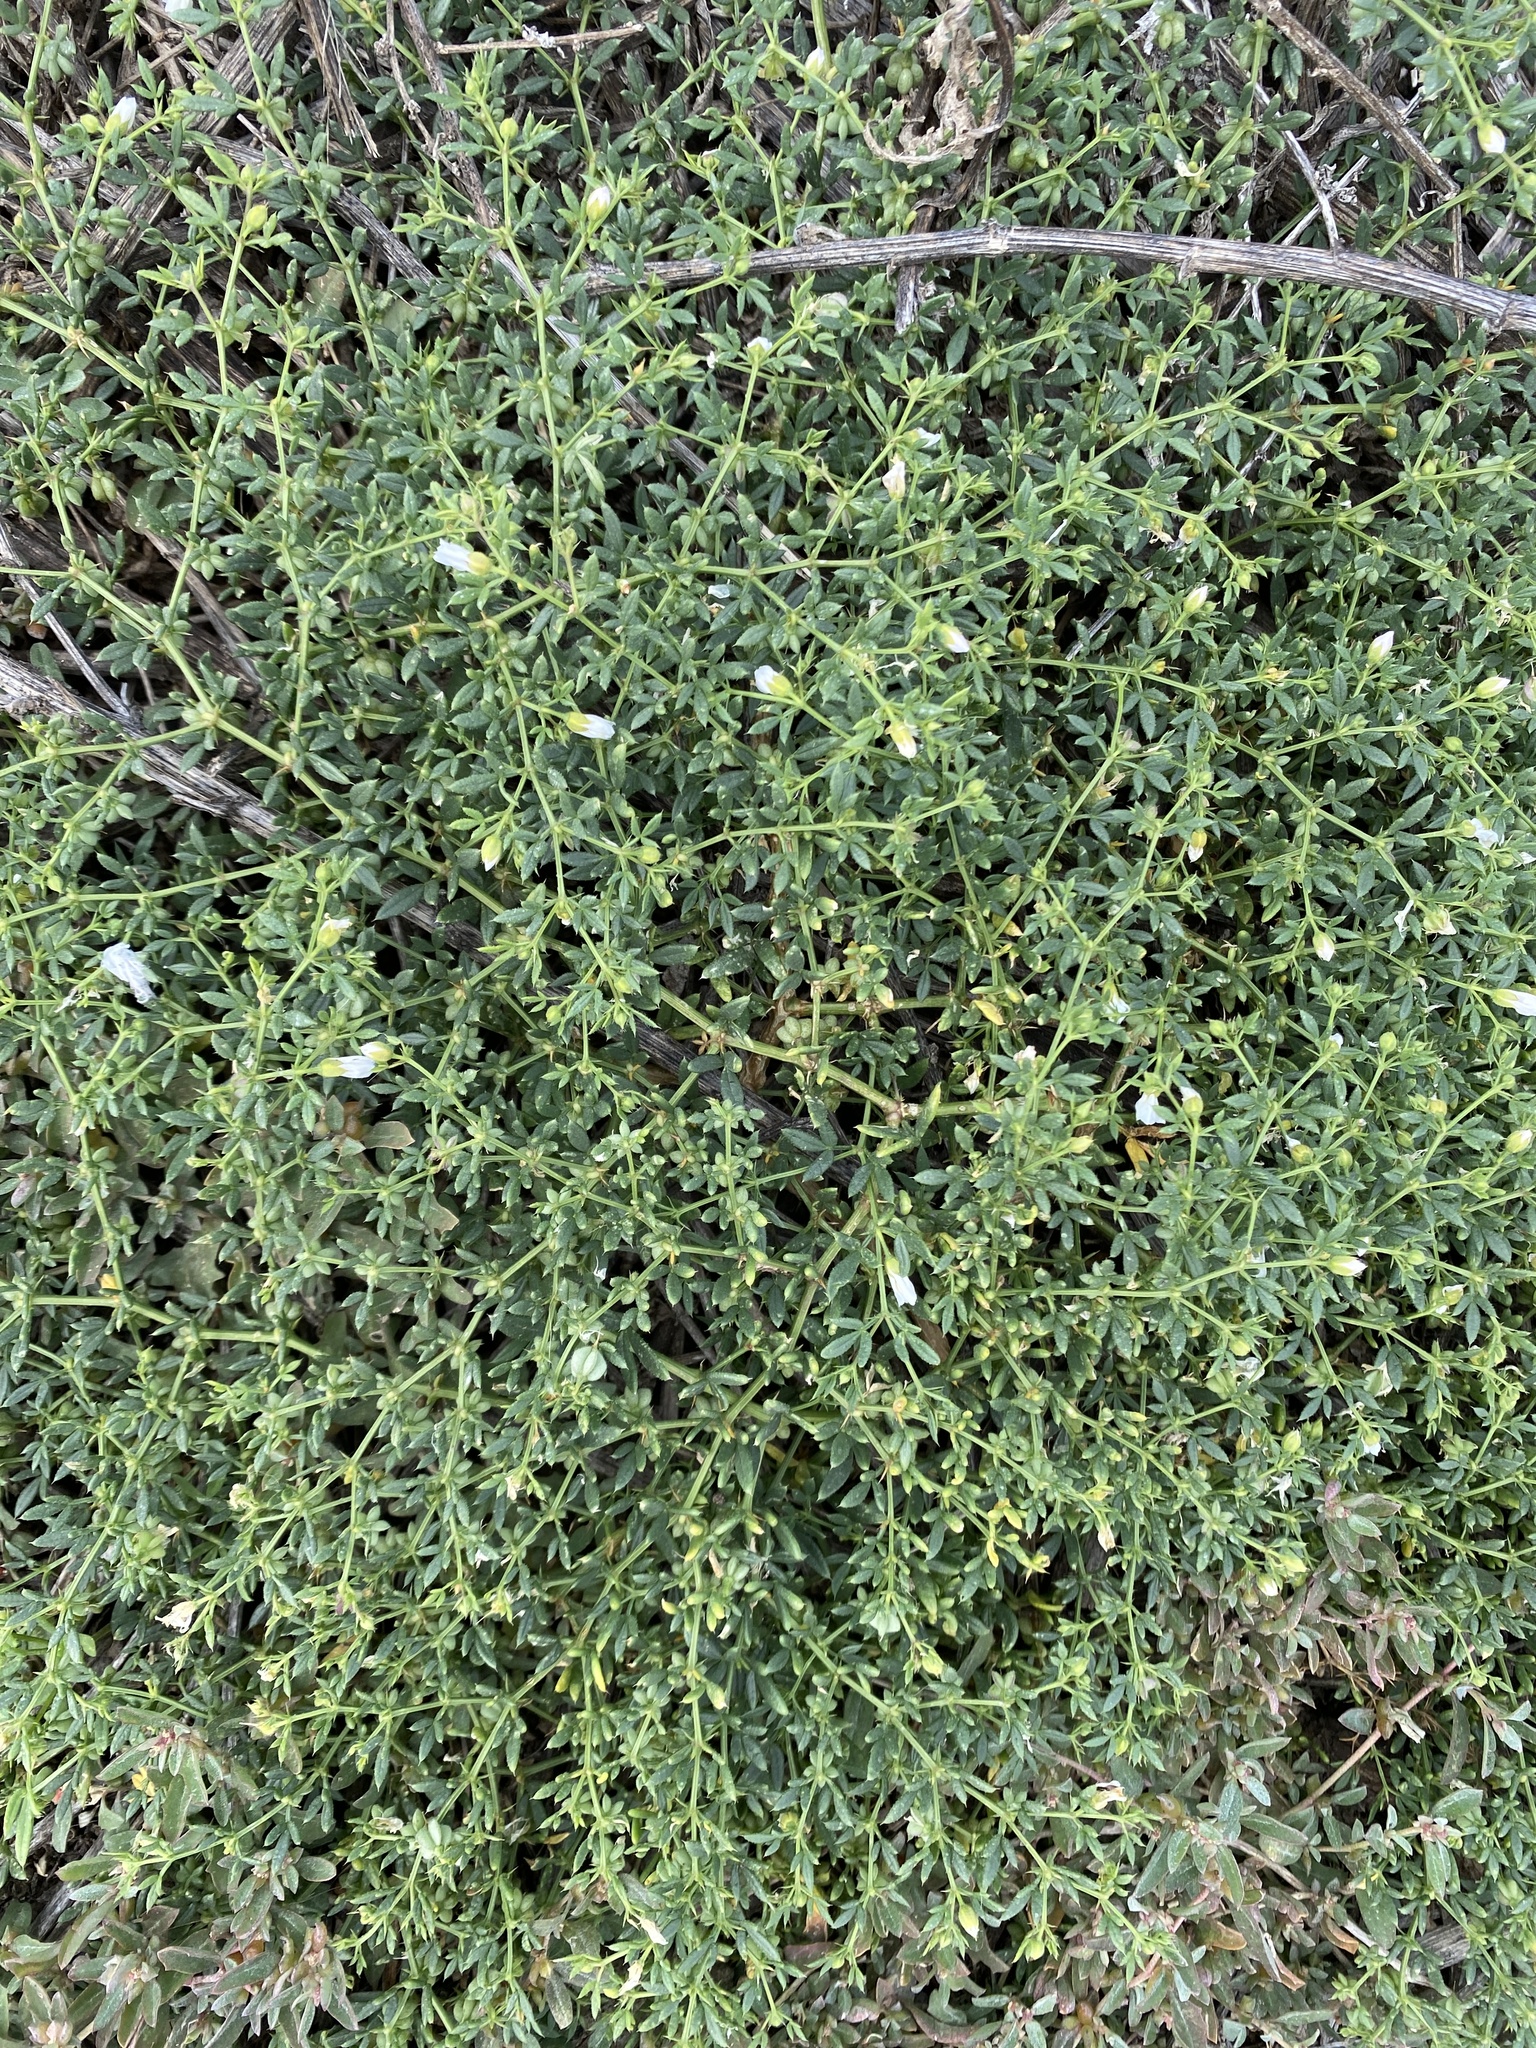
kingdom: Plantae
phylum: Tracheophyta
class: Magnoliopsida
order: Zygophyllales
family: Zygophyllaceae
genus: Fagonia
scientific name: Fagonia cretica
